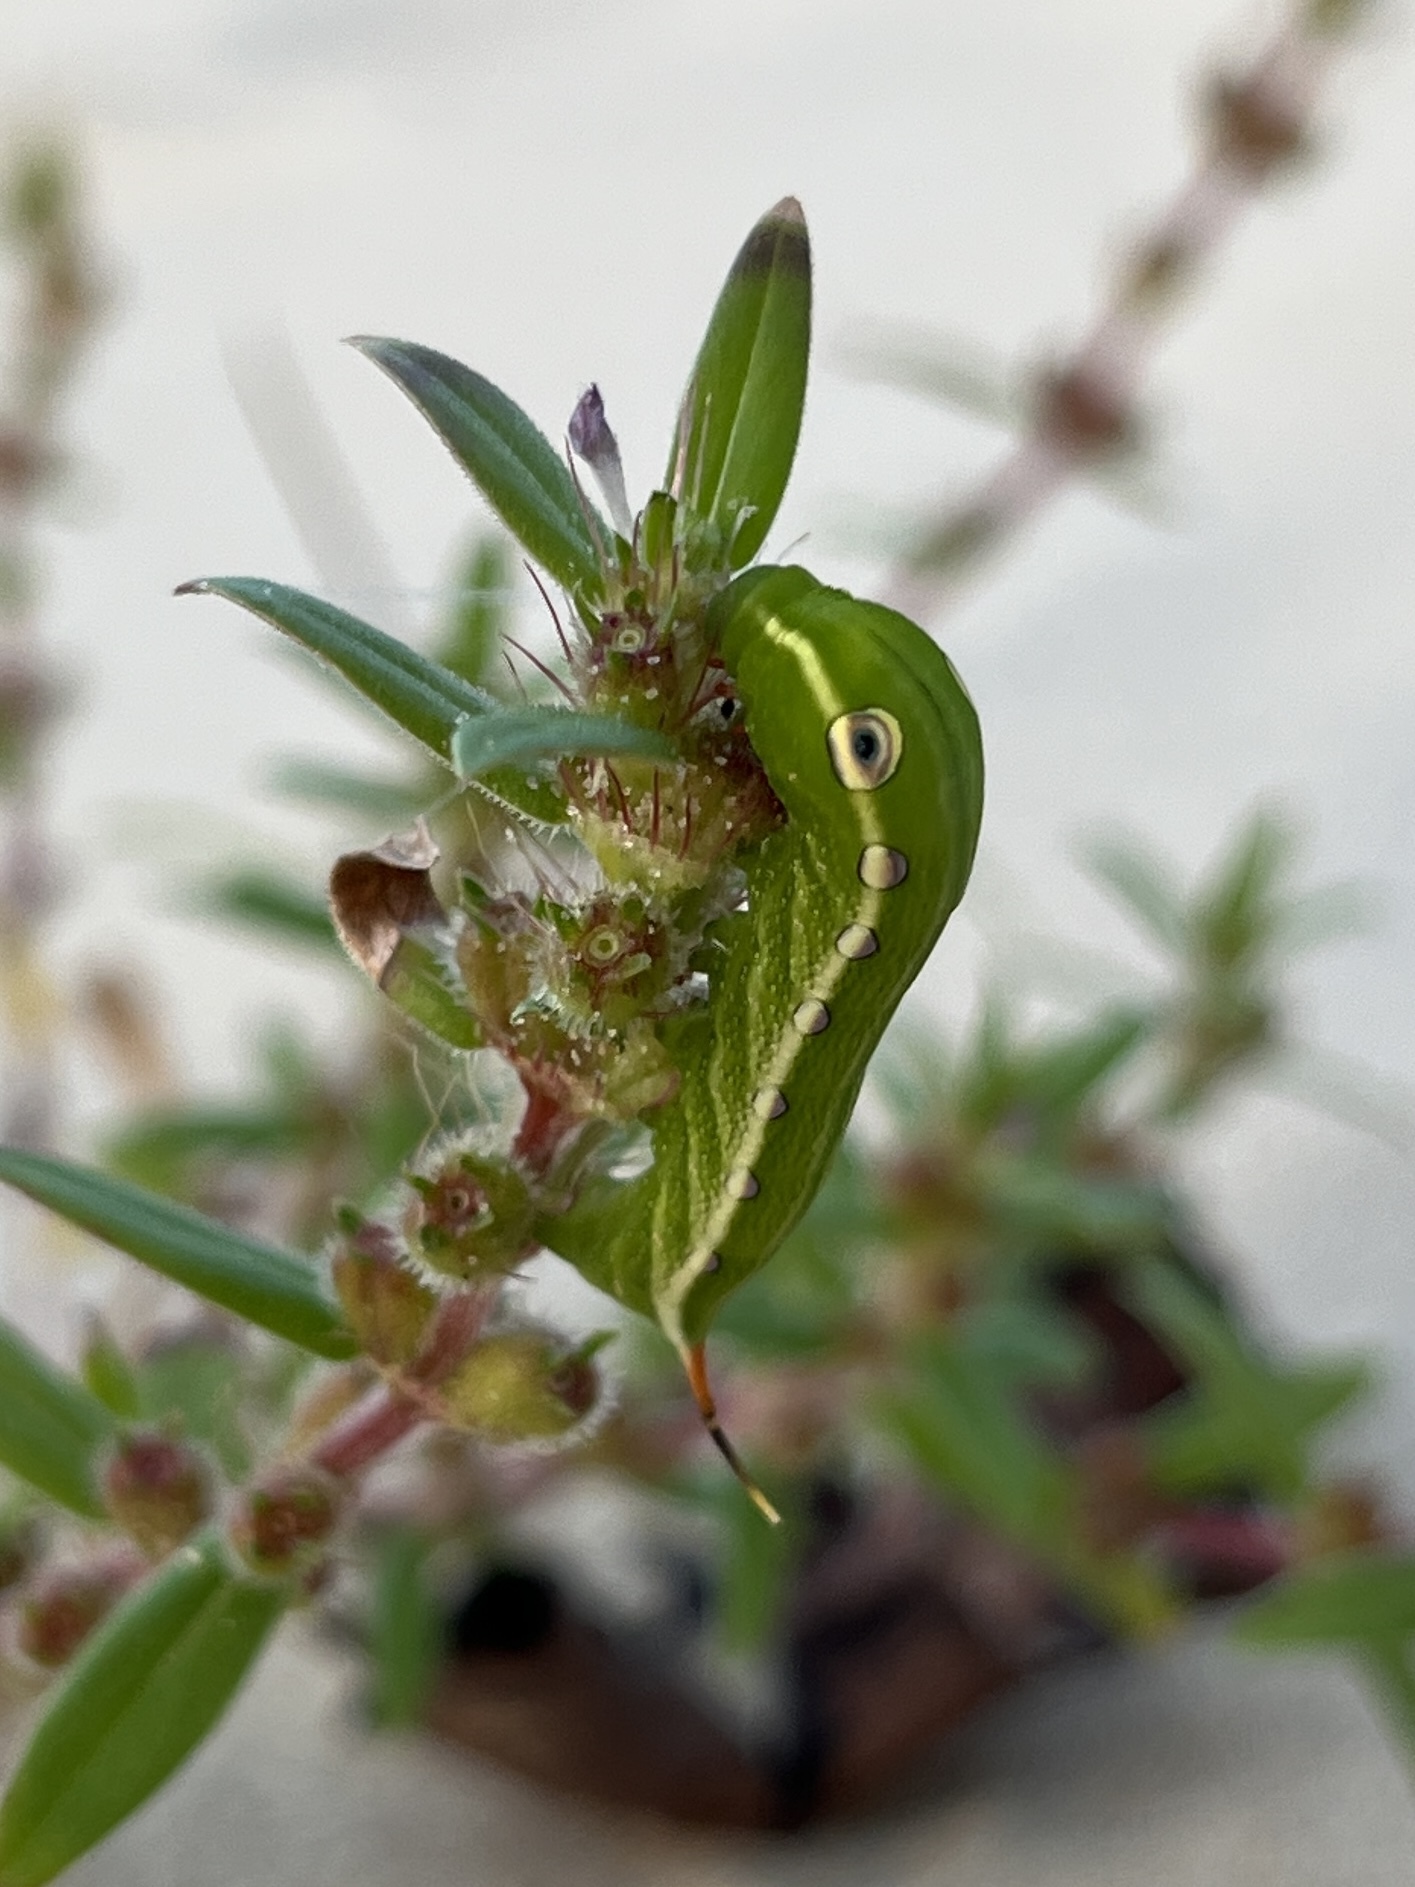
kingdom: Animalia
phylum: Arthropoda
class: Insecta
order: Lepidoptera
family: Sphingidae
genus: Xylophanes
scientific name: Xylophanes tersa
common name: Tersa sphinx
